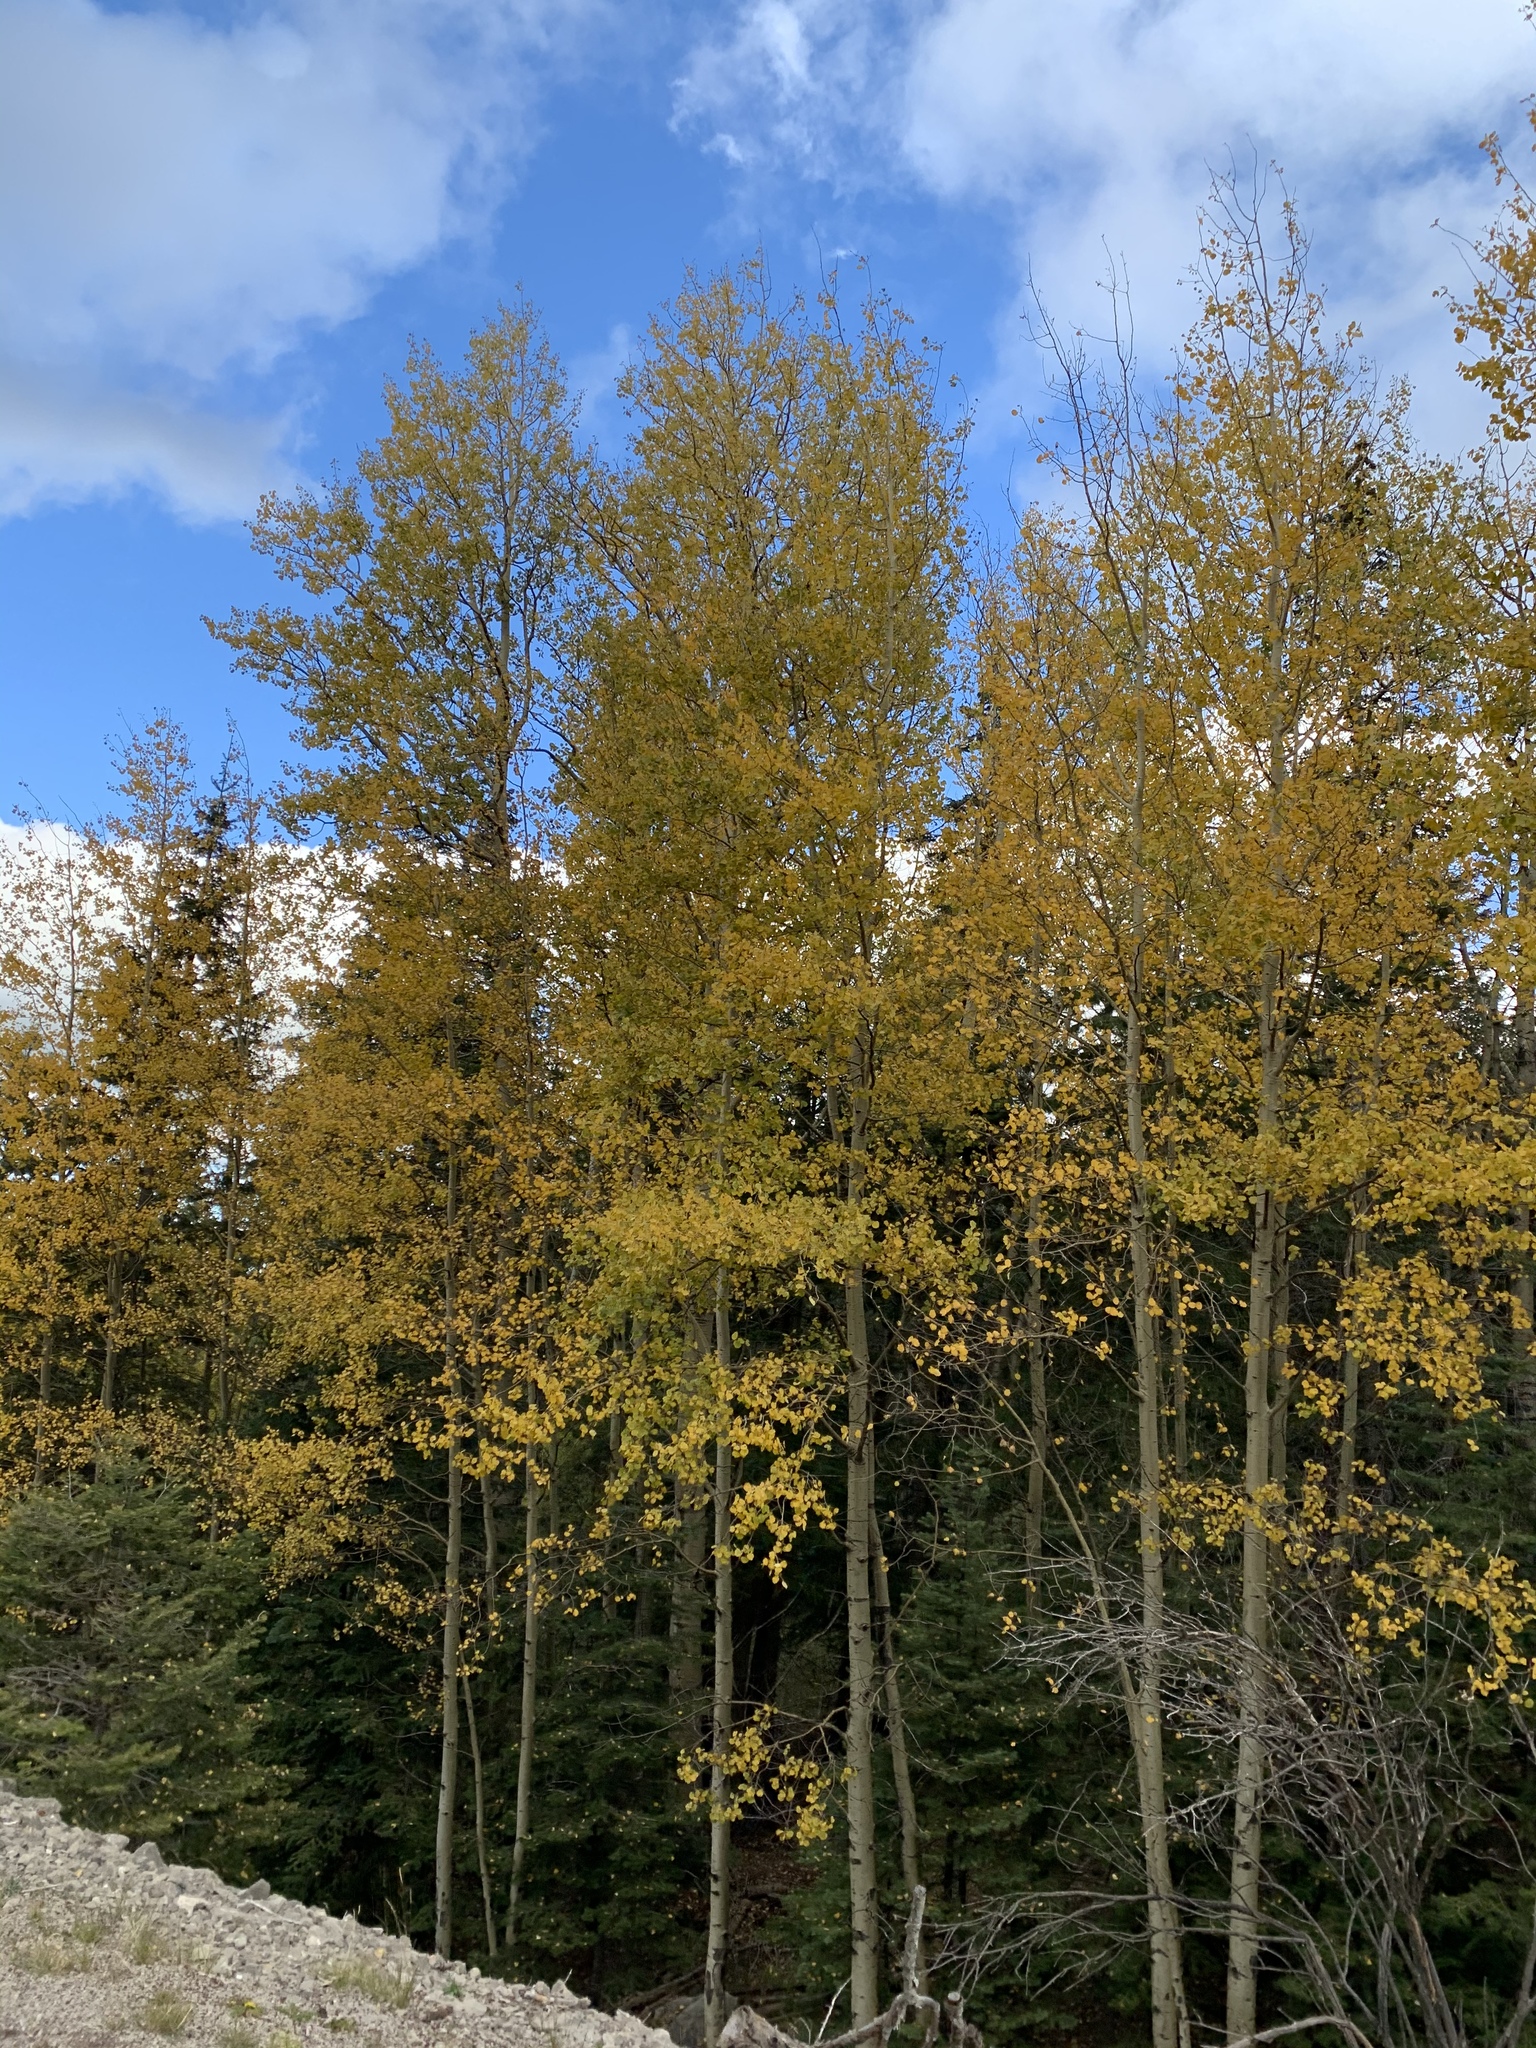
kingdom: Plantae
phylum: Tracheophyta
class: Magnoliopsida
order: Malpighiales
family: Salicaceae
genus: Populus
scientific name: Populus tremuloides
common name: Quaking aspen
